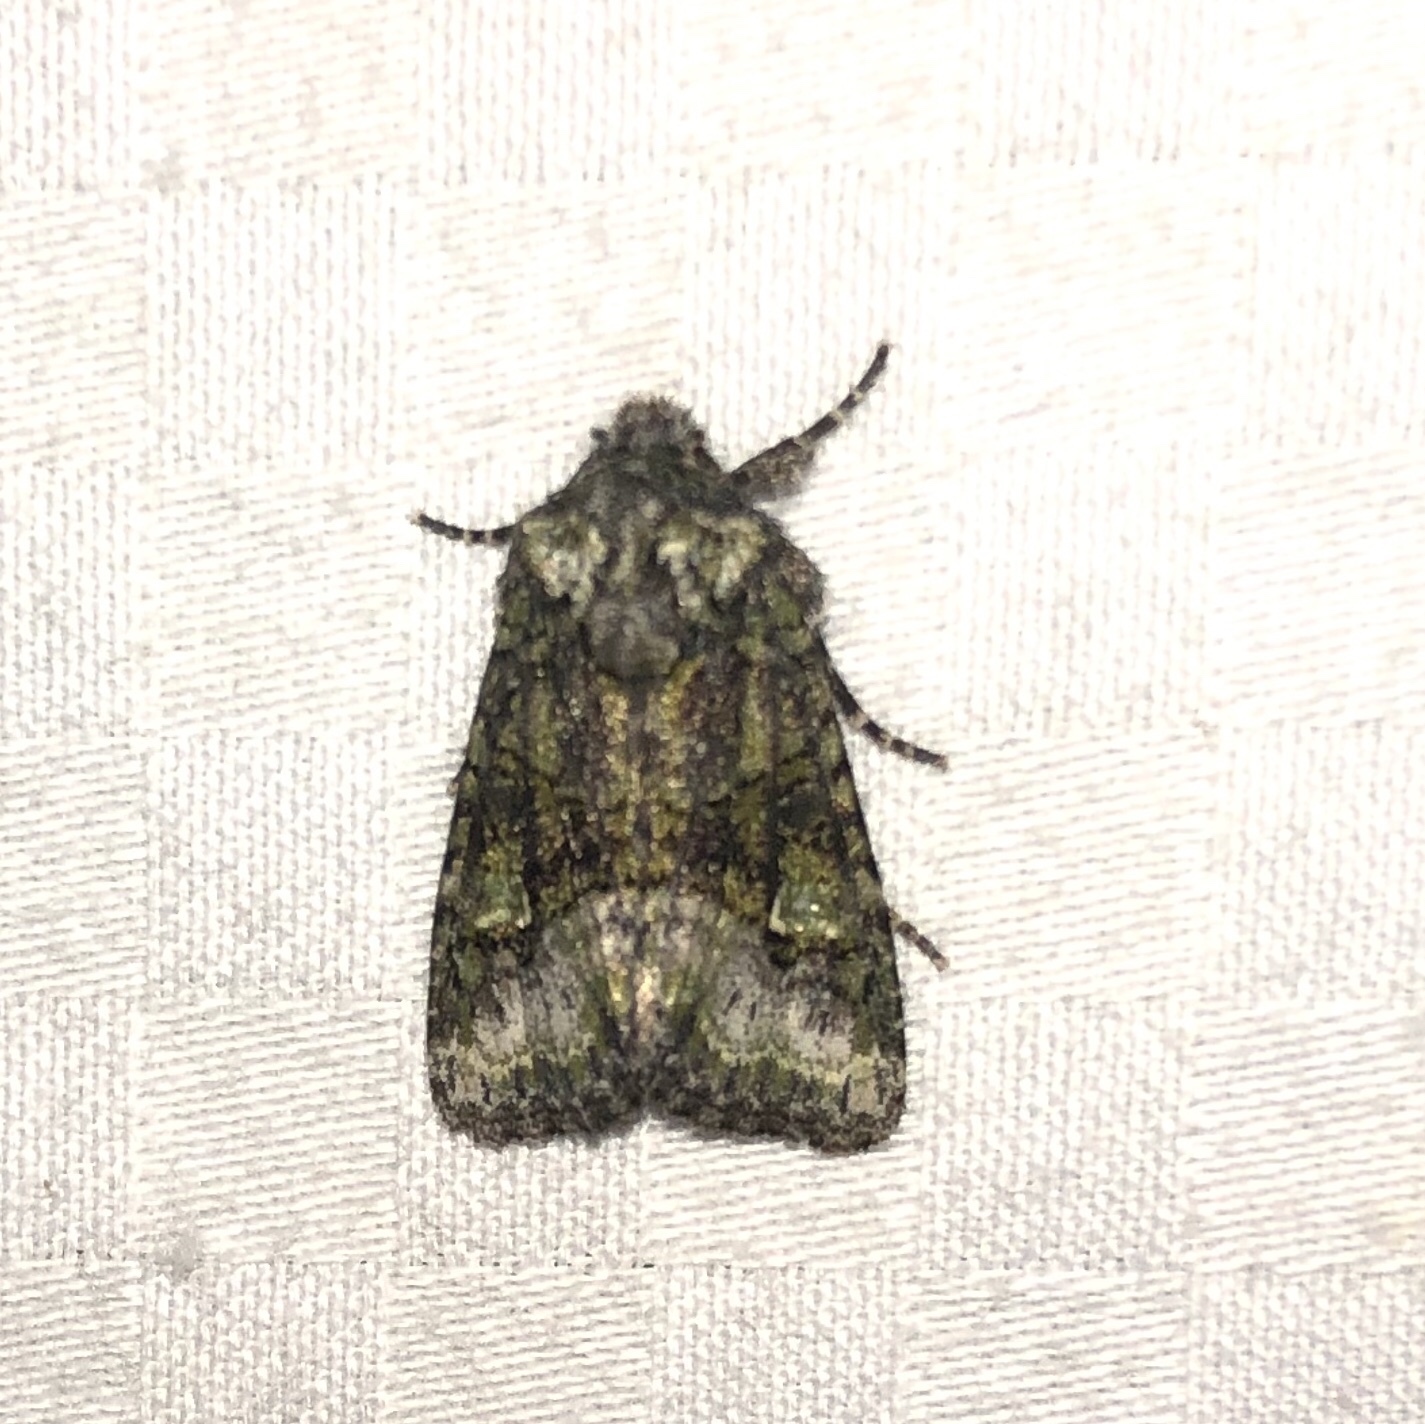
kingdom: Animalia
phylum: Arthropoda
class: Insecta
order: Lepidoptera
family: Noctuidae
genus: Lacinipolia
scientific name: Lacinipolia olivacea
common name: Olive arches moth
